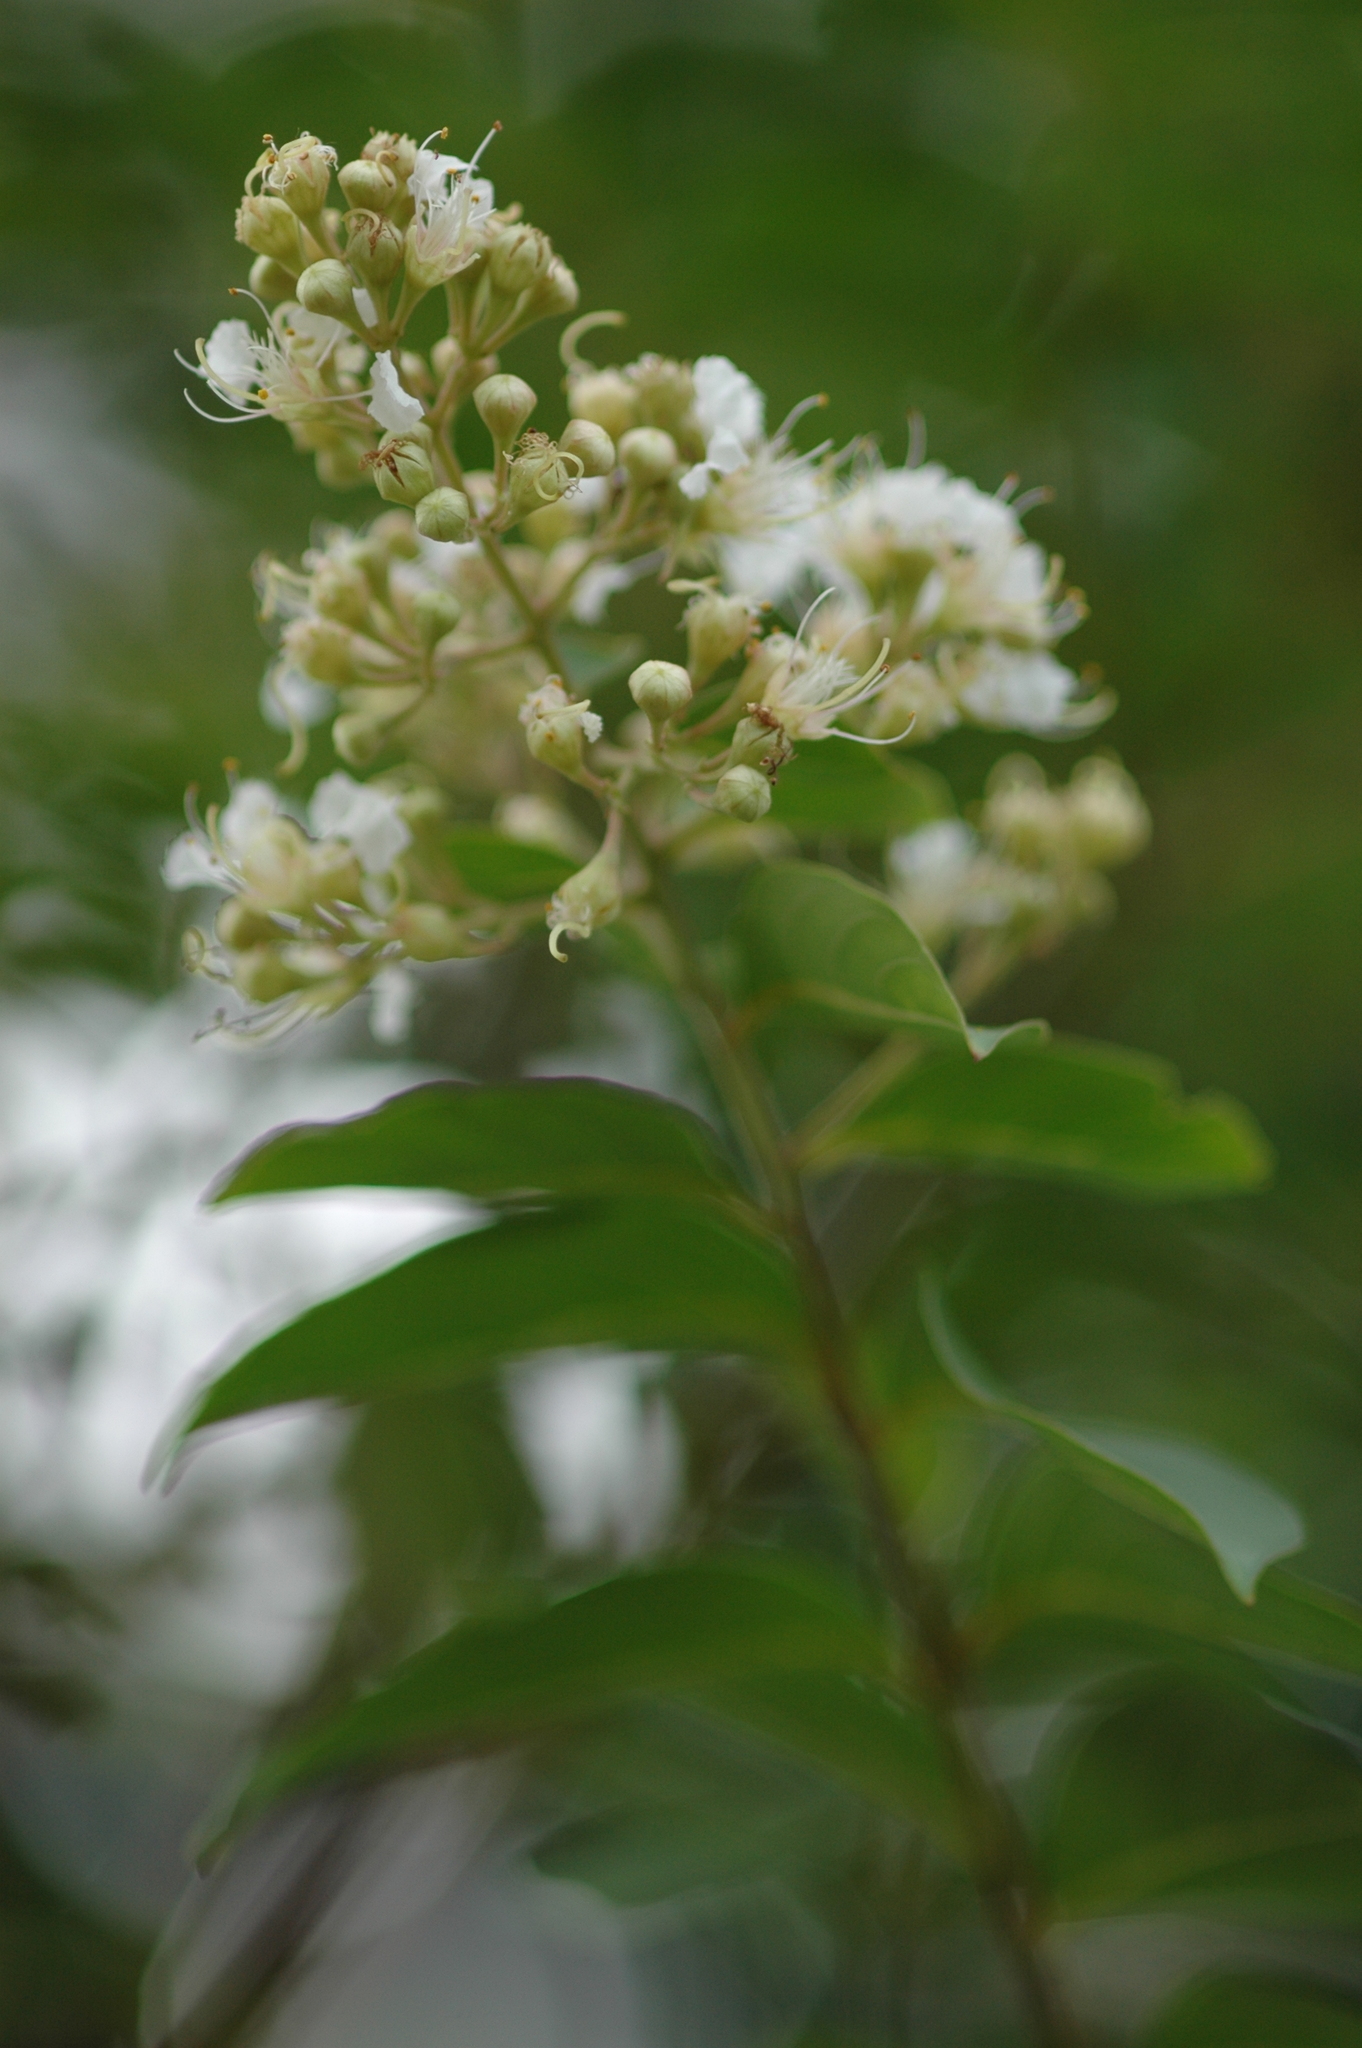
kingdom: Plantae
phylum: Tracheophyta
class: Magnoliopsida
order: Myrtales
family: Lythraceae
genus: Lagerstroemia
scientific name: Lagerstroemia subcostata
